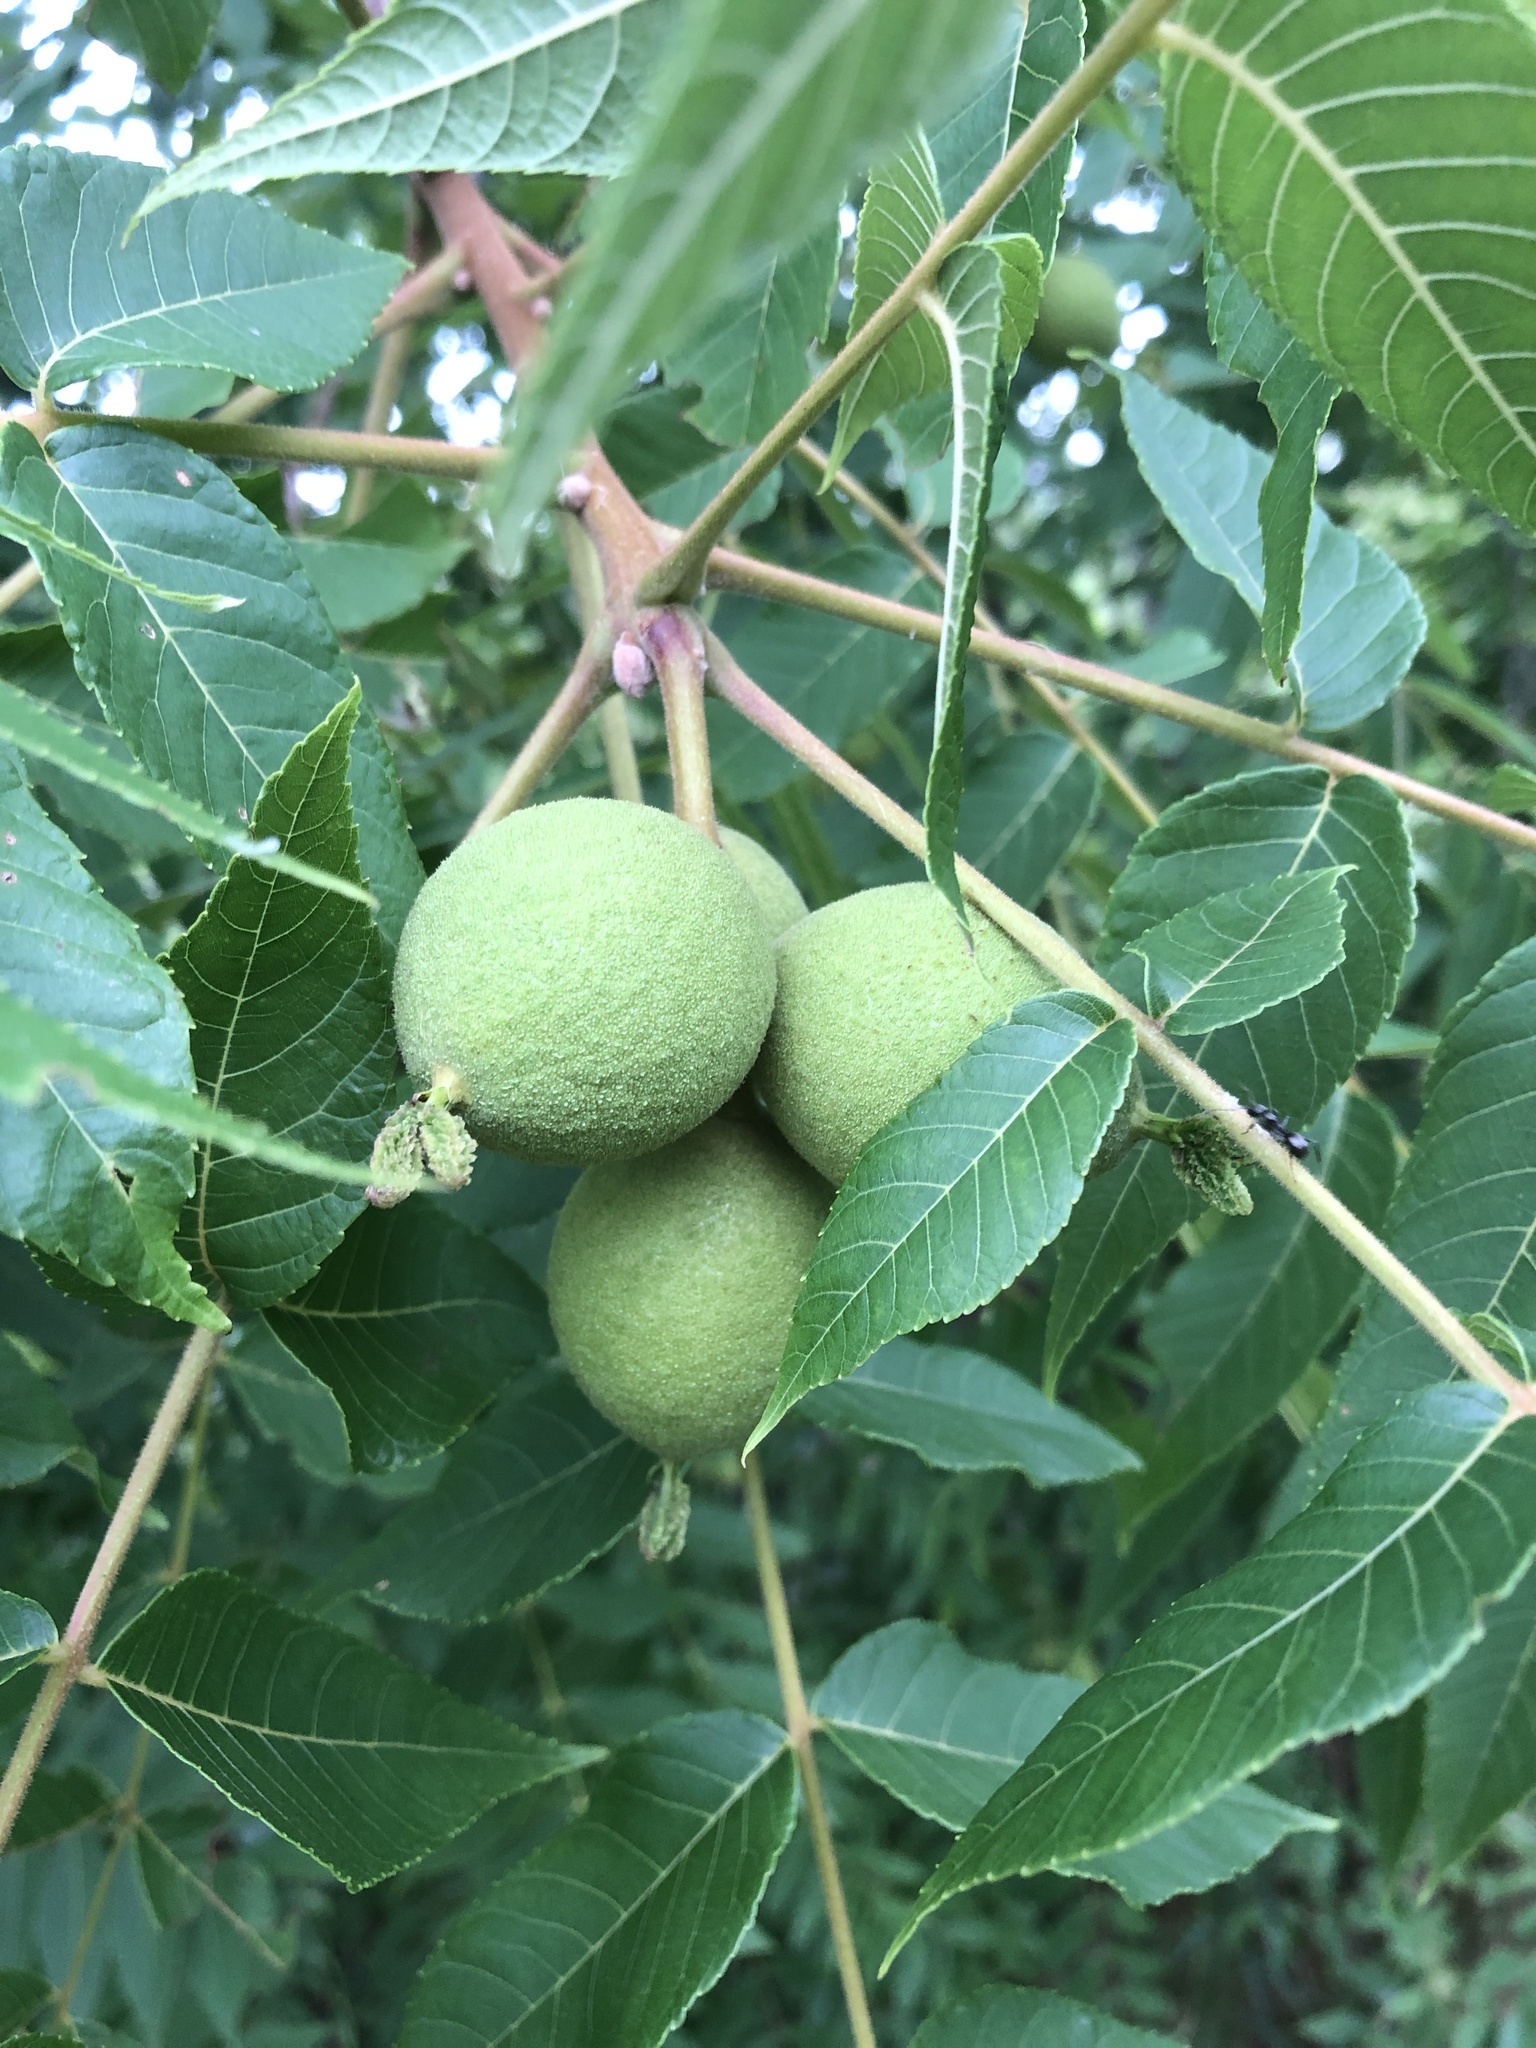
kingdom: Plantae
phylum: Tracheophyta
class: Magnoliopsida
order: Fagales
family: Juglandaceae
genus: Juglans
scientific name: Juglans nigra
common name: Black walnut
